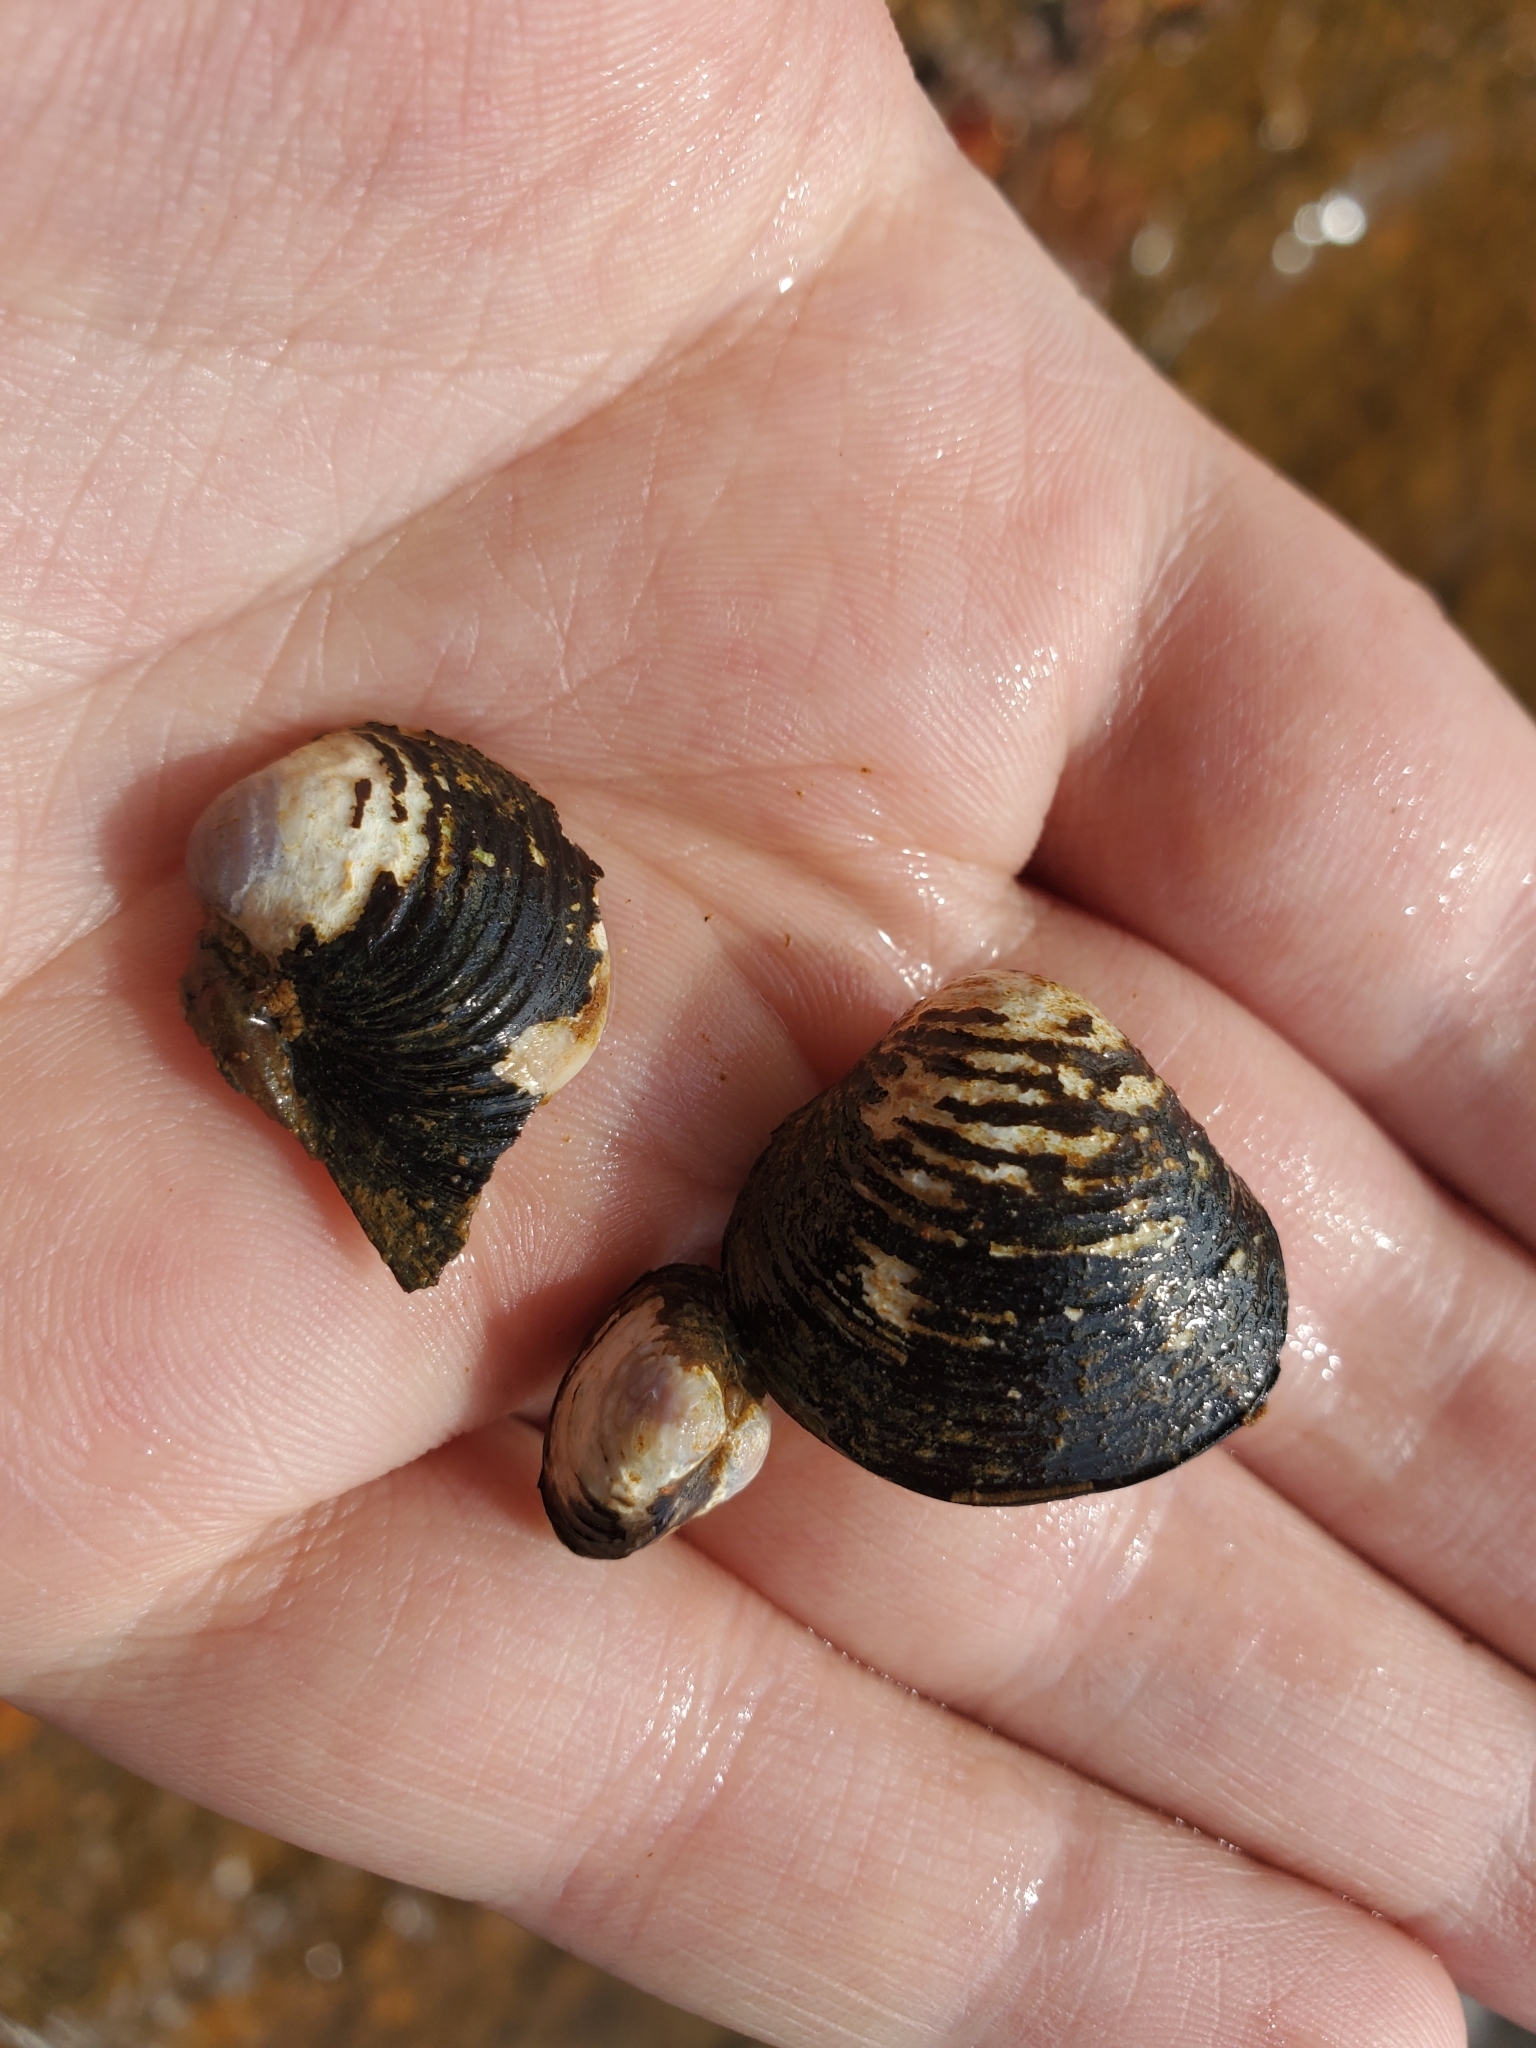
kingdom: Animalia
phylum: Mollusca
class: Bivalvia
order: Venerida
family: Cyrenidae
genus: Corbicula
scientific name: Corbicula fluminea
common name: Asian clam
